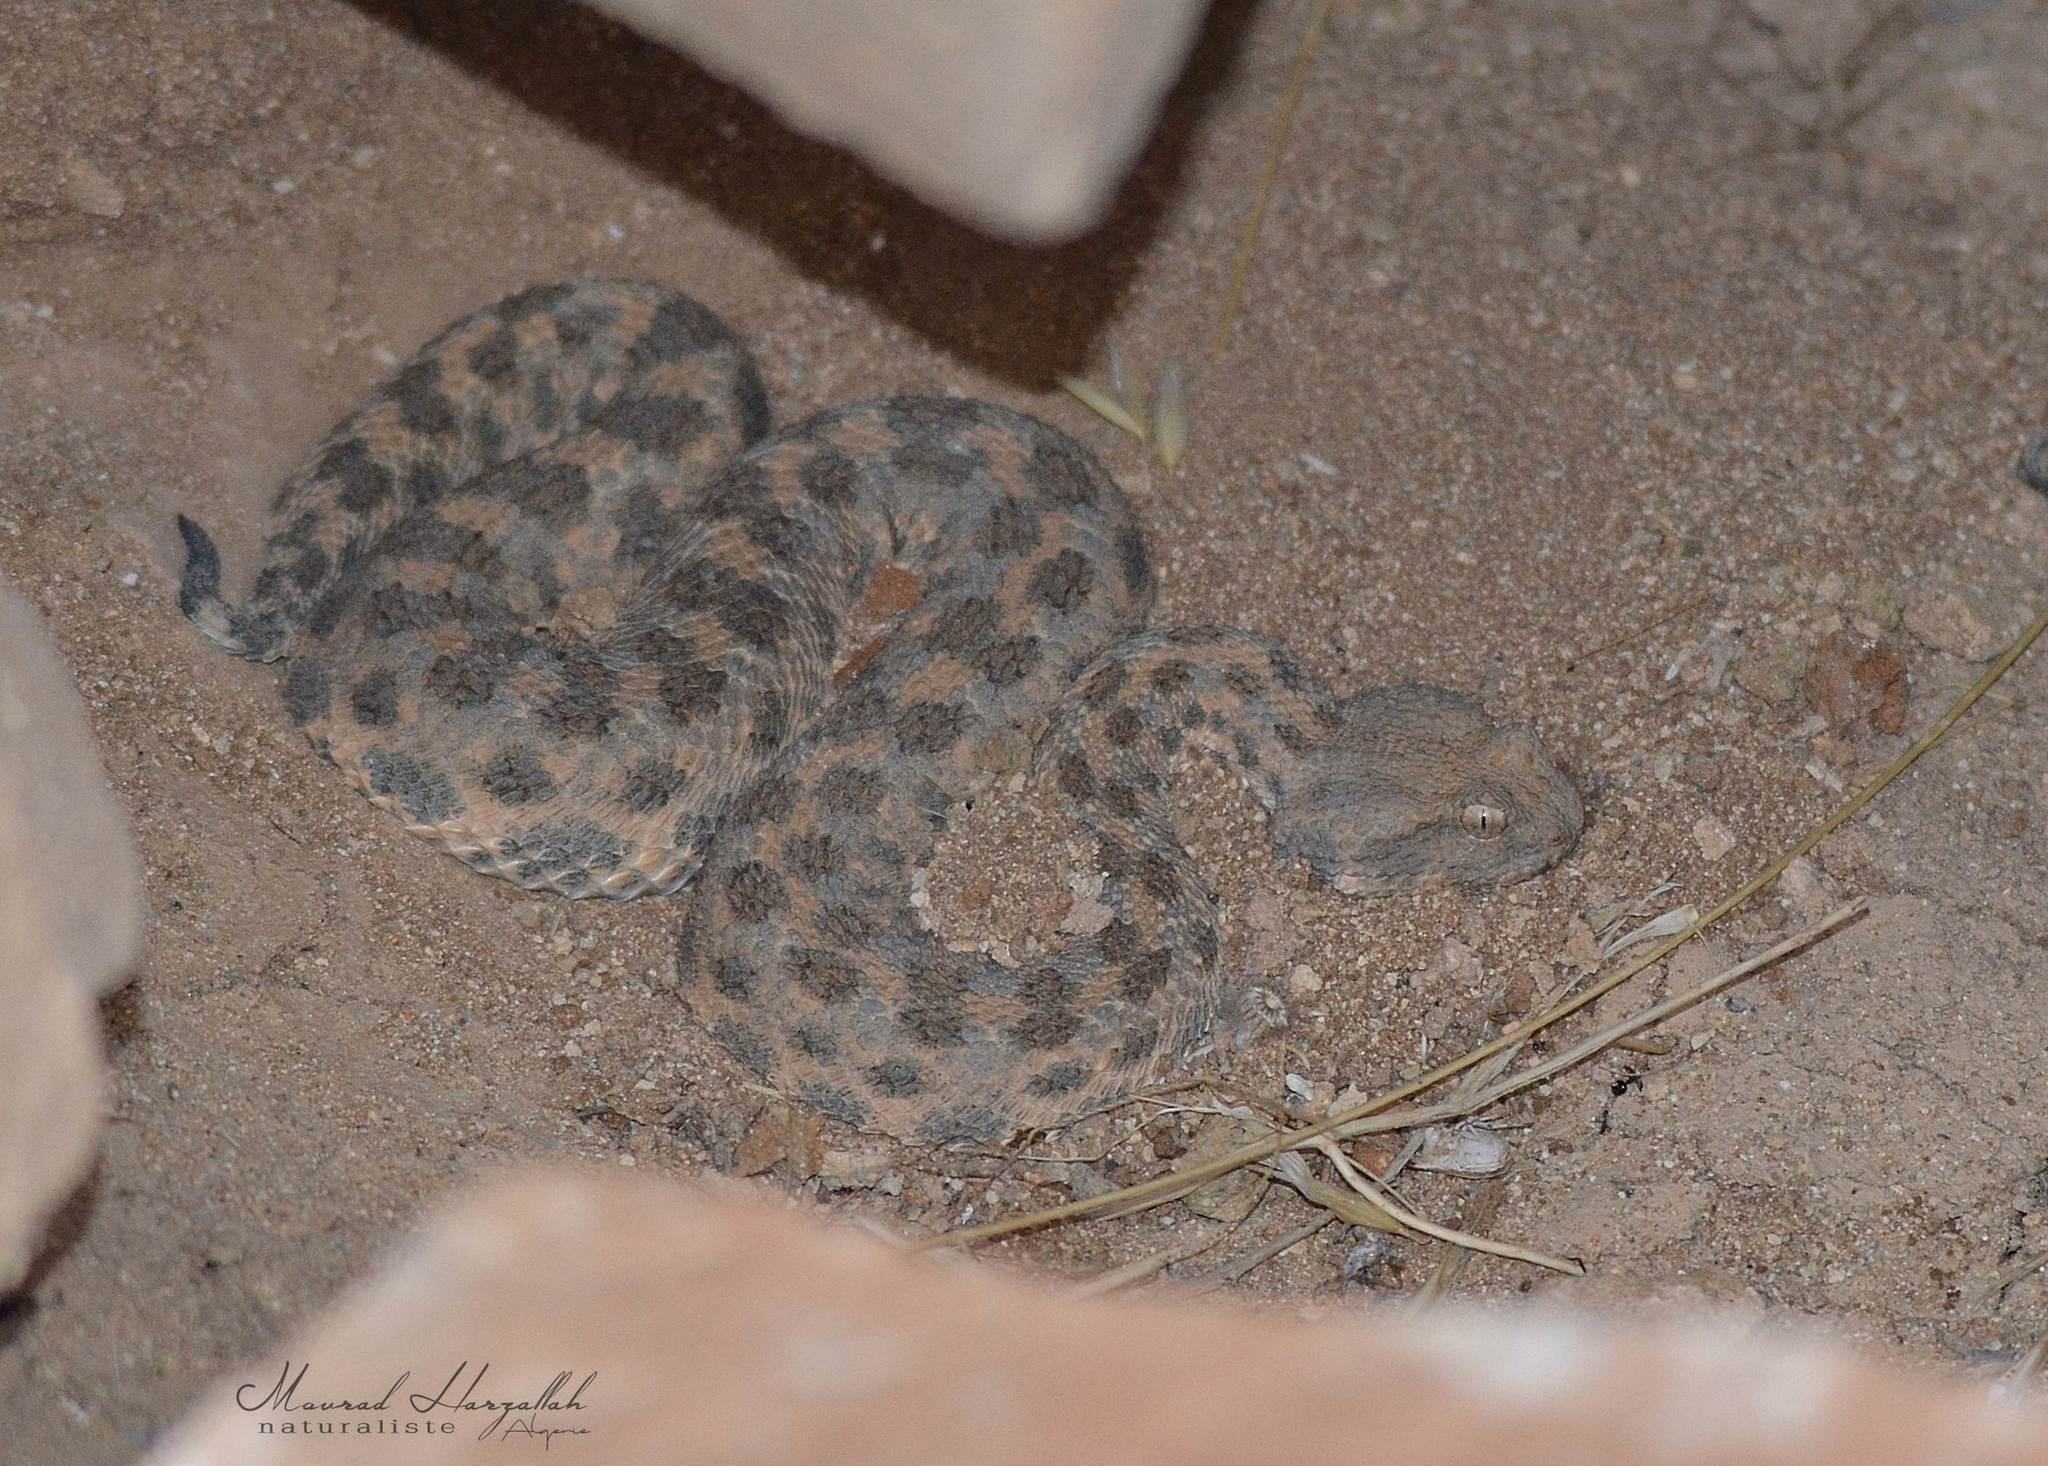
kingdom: Animalia
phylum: Chordata
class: Squamata
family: Viperidae
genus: Cerastes
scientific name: Cerastes cerastes
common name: Desert horned viper
